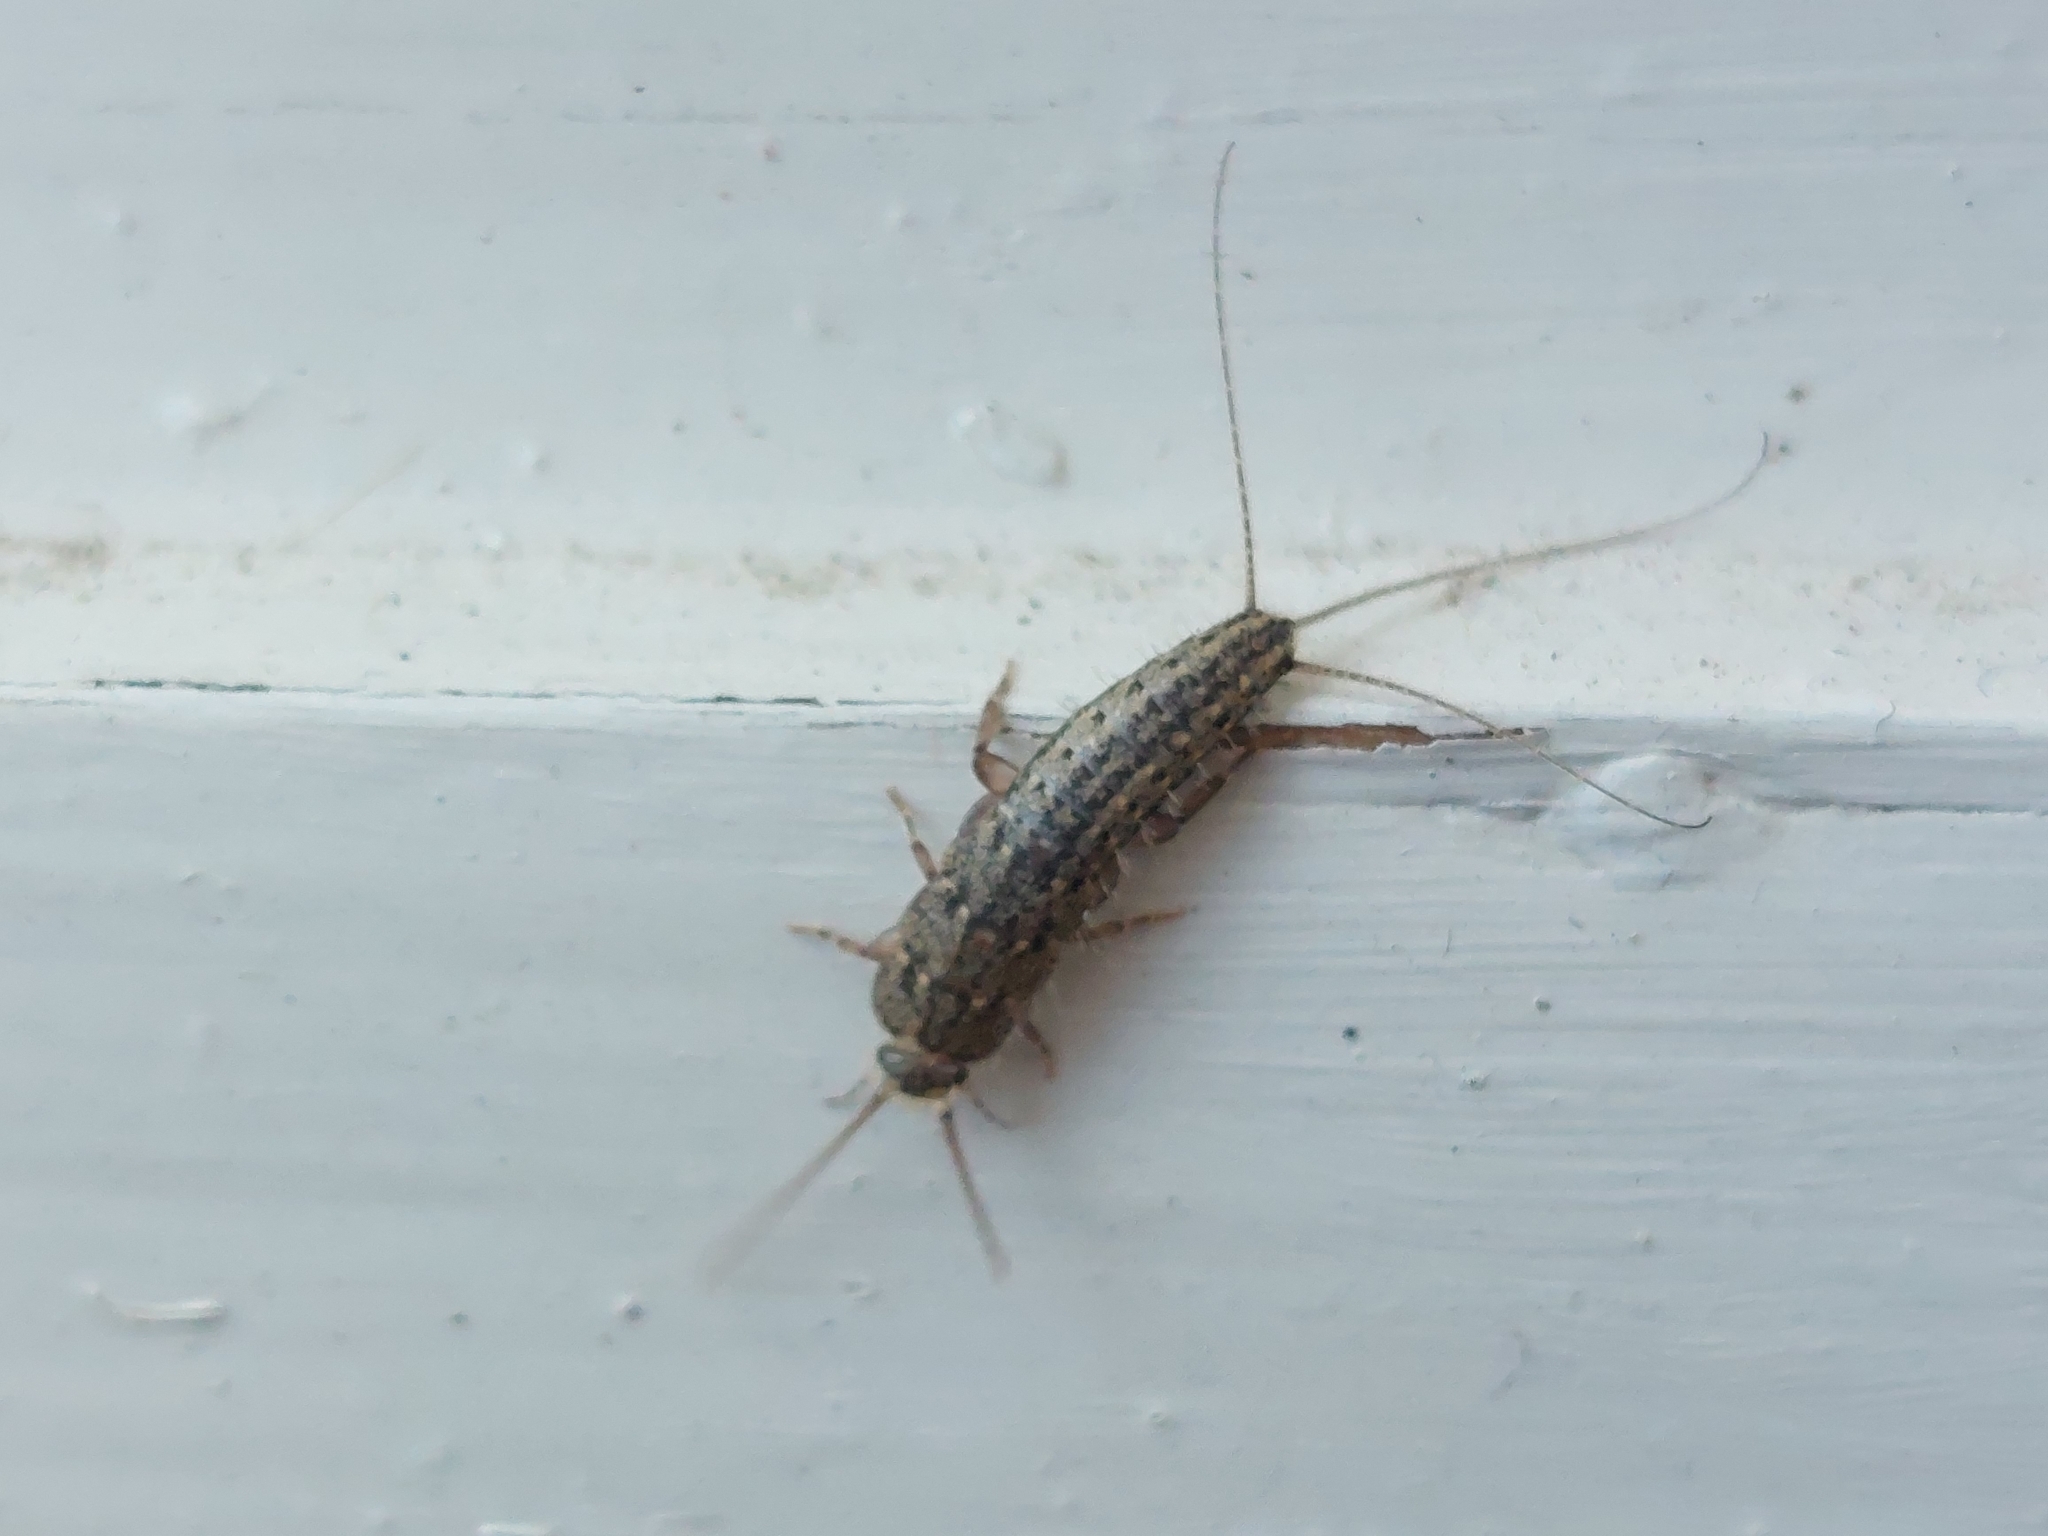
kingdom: Animalia
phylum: Arthropoda
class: Insecta
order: Zygentoma
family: Lepismatidae
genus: Ctenolepisma
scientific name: Ctenolepisma lineata
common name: Four-lined silverfish
